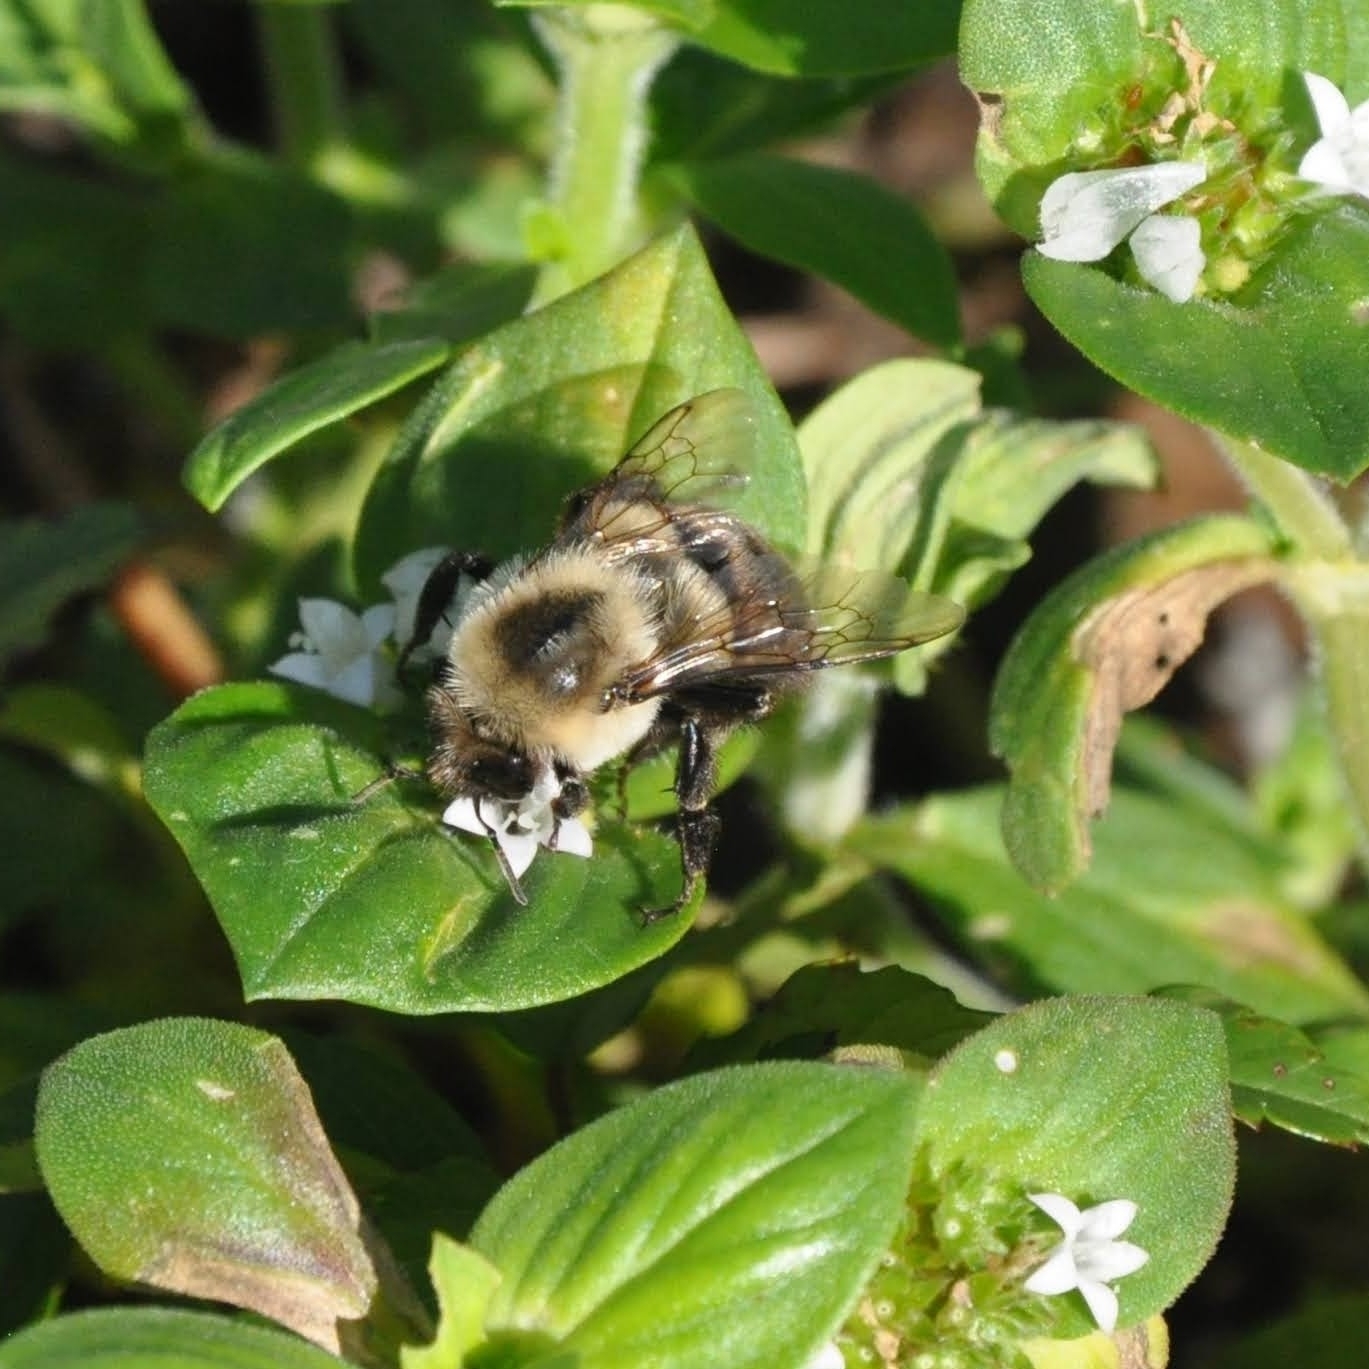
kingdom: Animalia
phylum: Arthropoda
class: Insecta
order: Hymenoptera
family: Apidae
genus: Bombus
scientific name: Bombus impatiens
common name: Common eastern bumble bee
